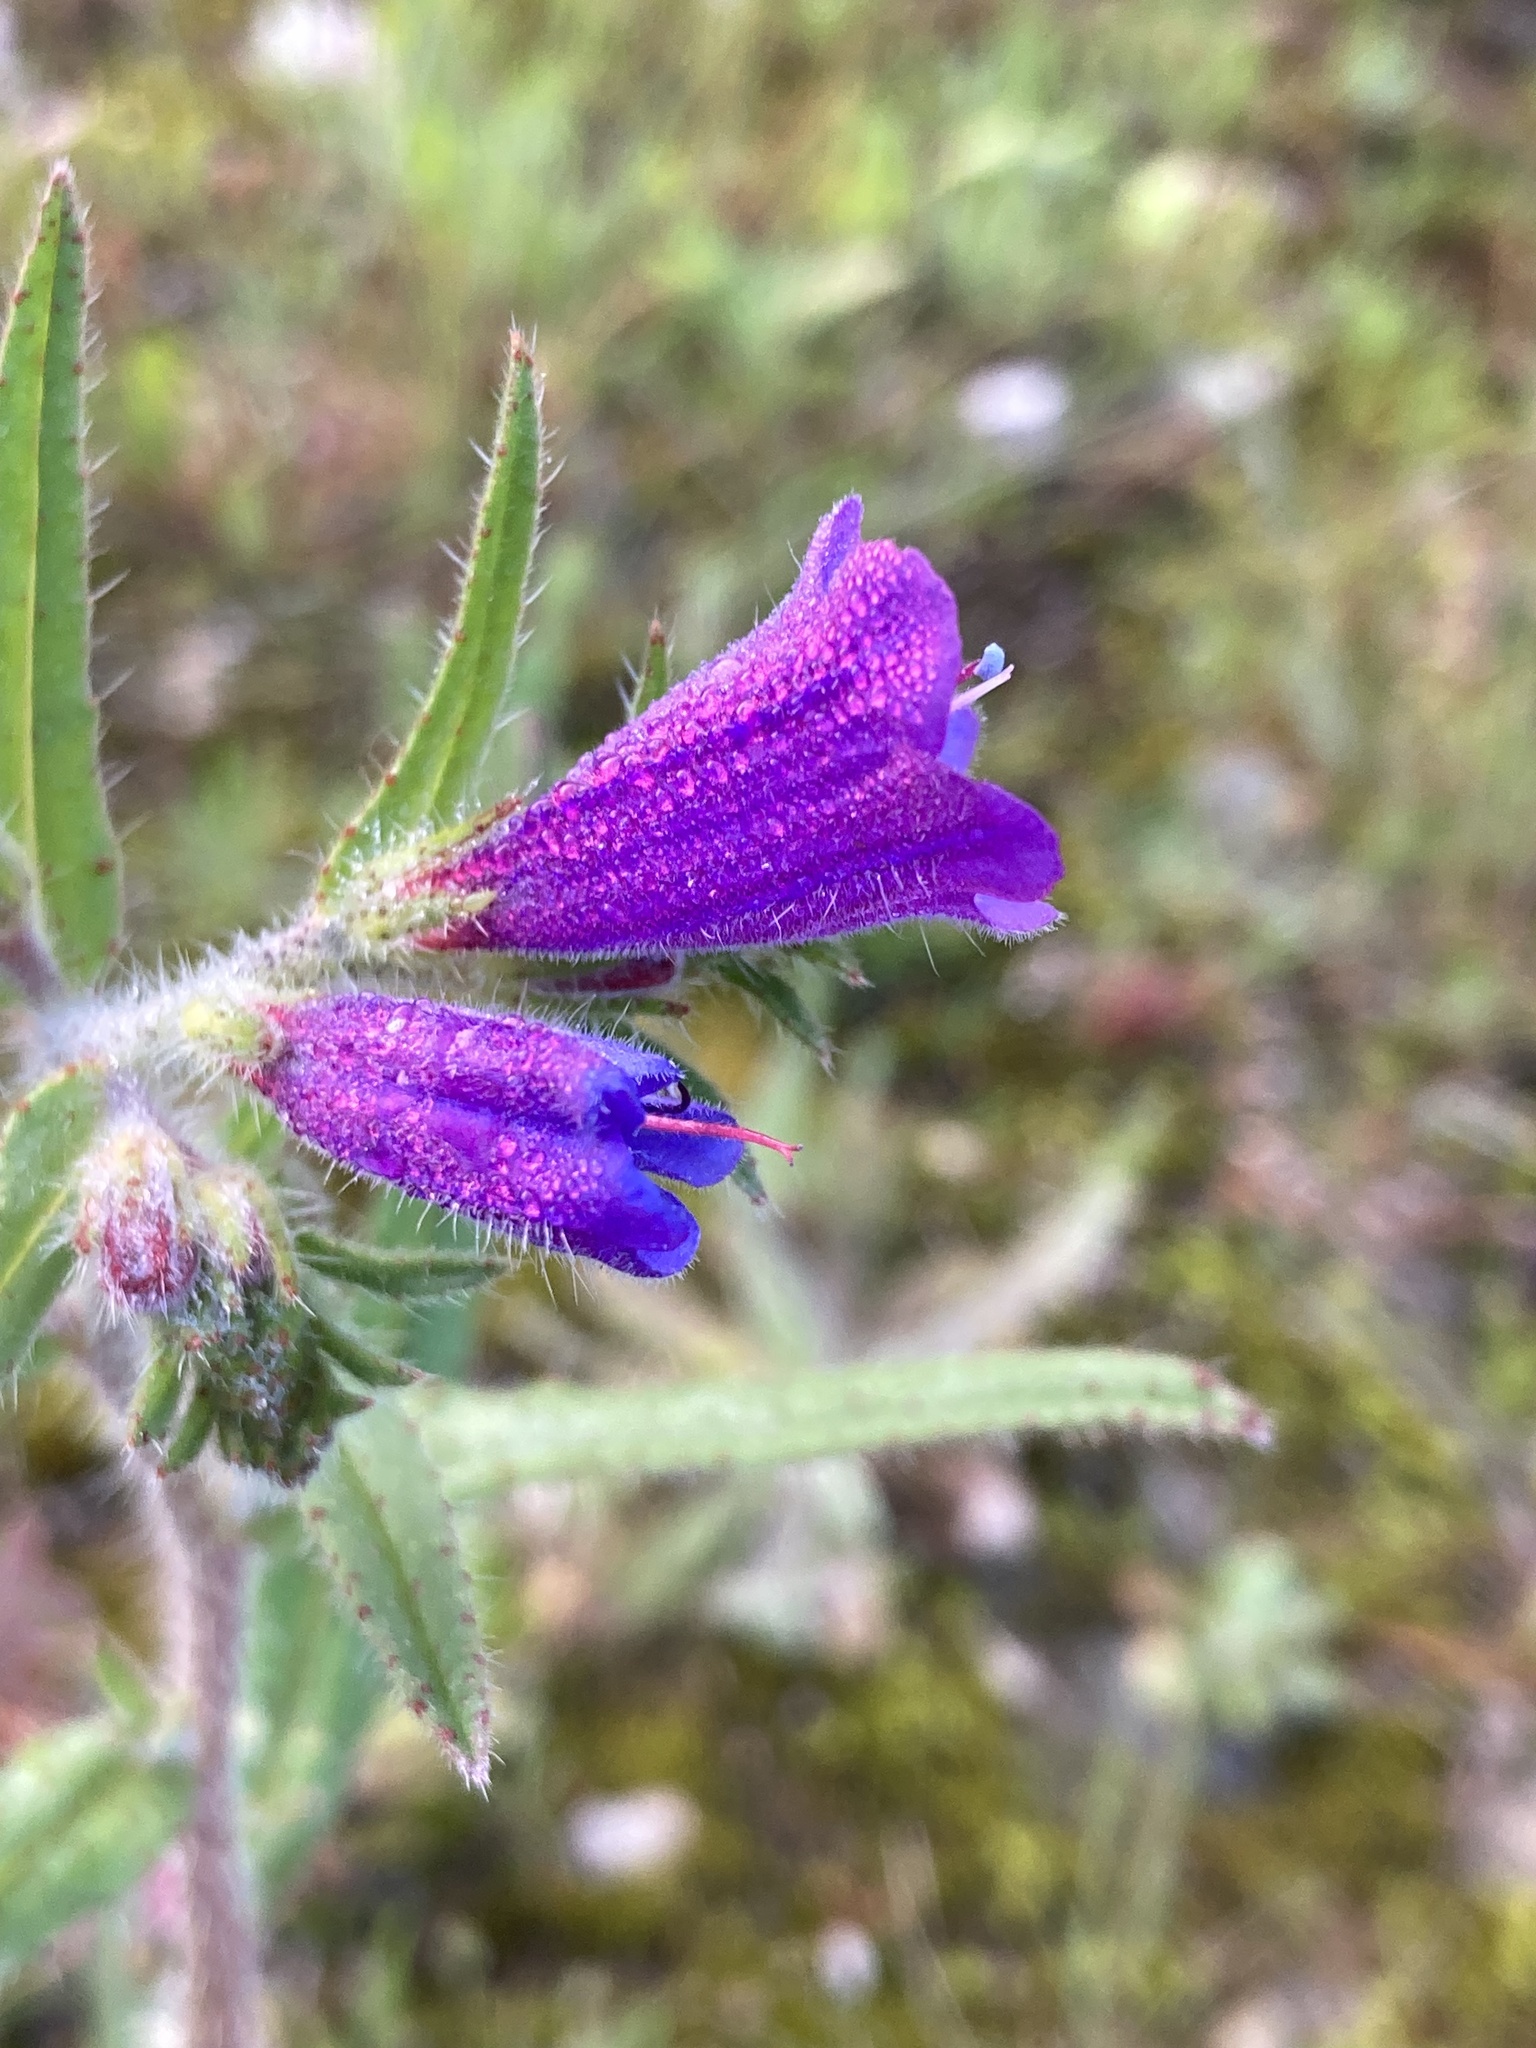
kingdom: Plantae
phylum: Tracheophyta
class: Magnoliopsida
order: Boraginales
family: Boraginaceae
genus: Echium
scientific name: Echium creticum
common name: Cretan viper's bugloss
